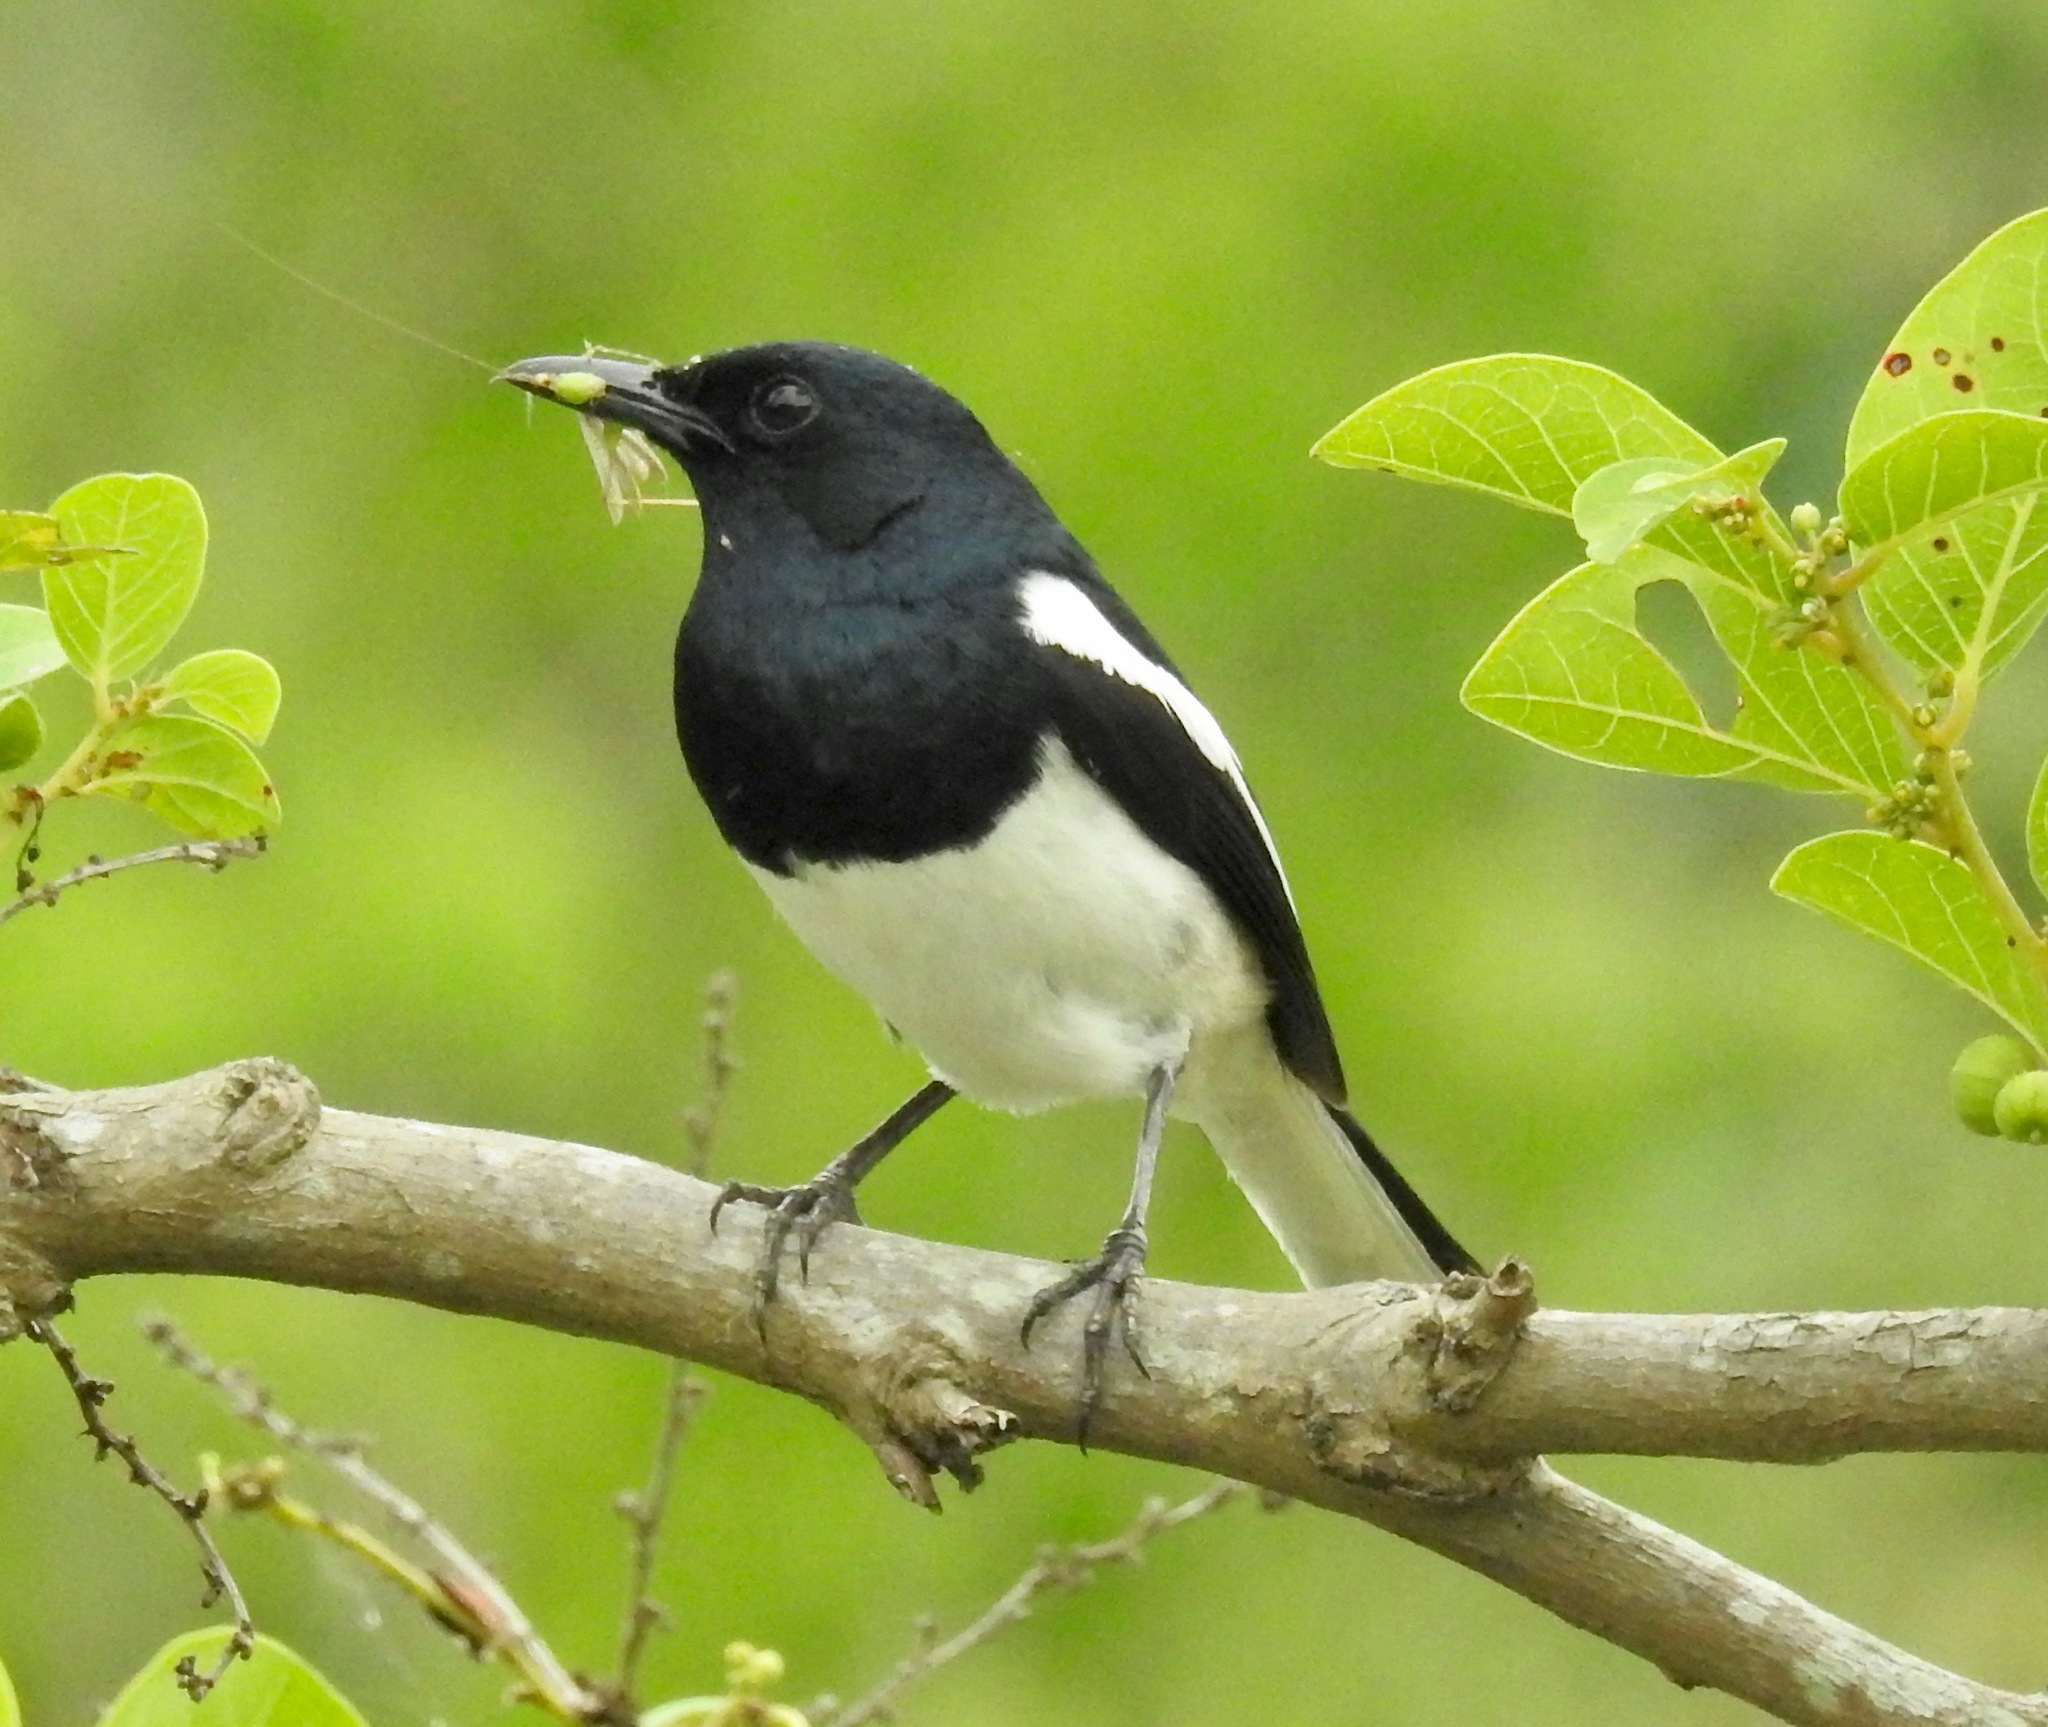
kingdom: Animalia
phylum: Chordata
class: Aves
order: Passeriformes
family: Muscicapidae
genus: Copsychus
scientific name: Copsychus saularis
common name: Oriental magpie-robin
